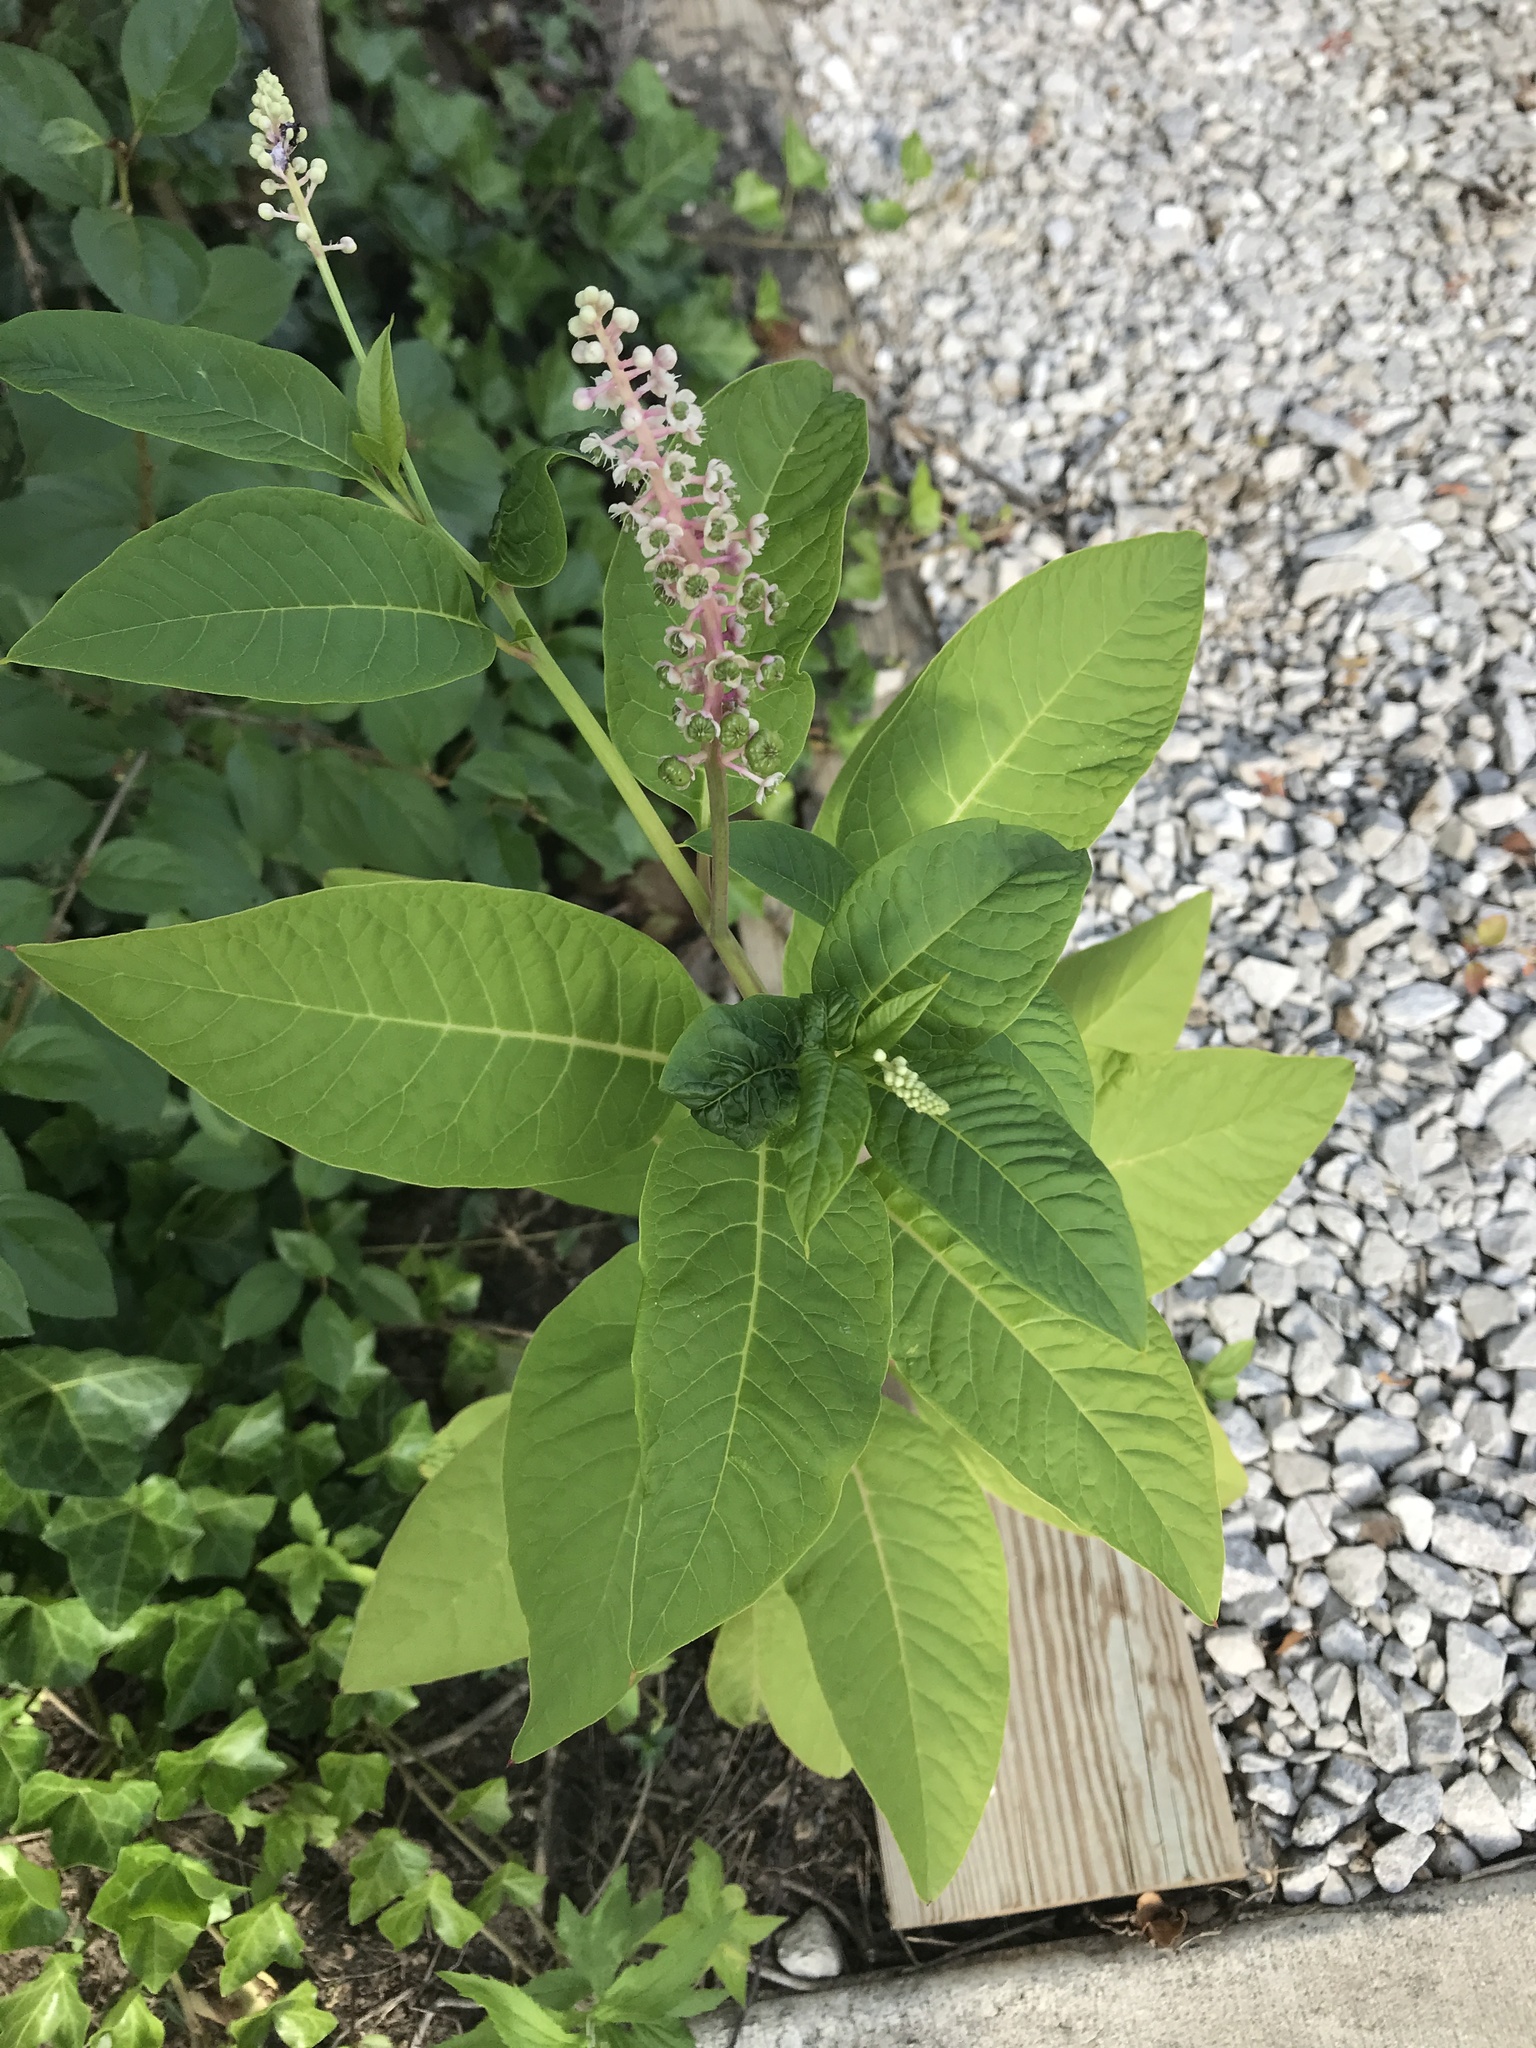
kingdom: Plantae
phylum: Tracheophyta
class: Magnoliopsida
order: Caryophyllales
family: Phytolaccaceae
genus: Phytolacca
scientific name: Phytolacca americana
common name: American pokeweed
